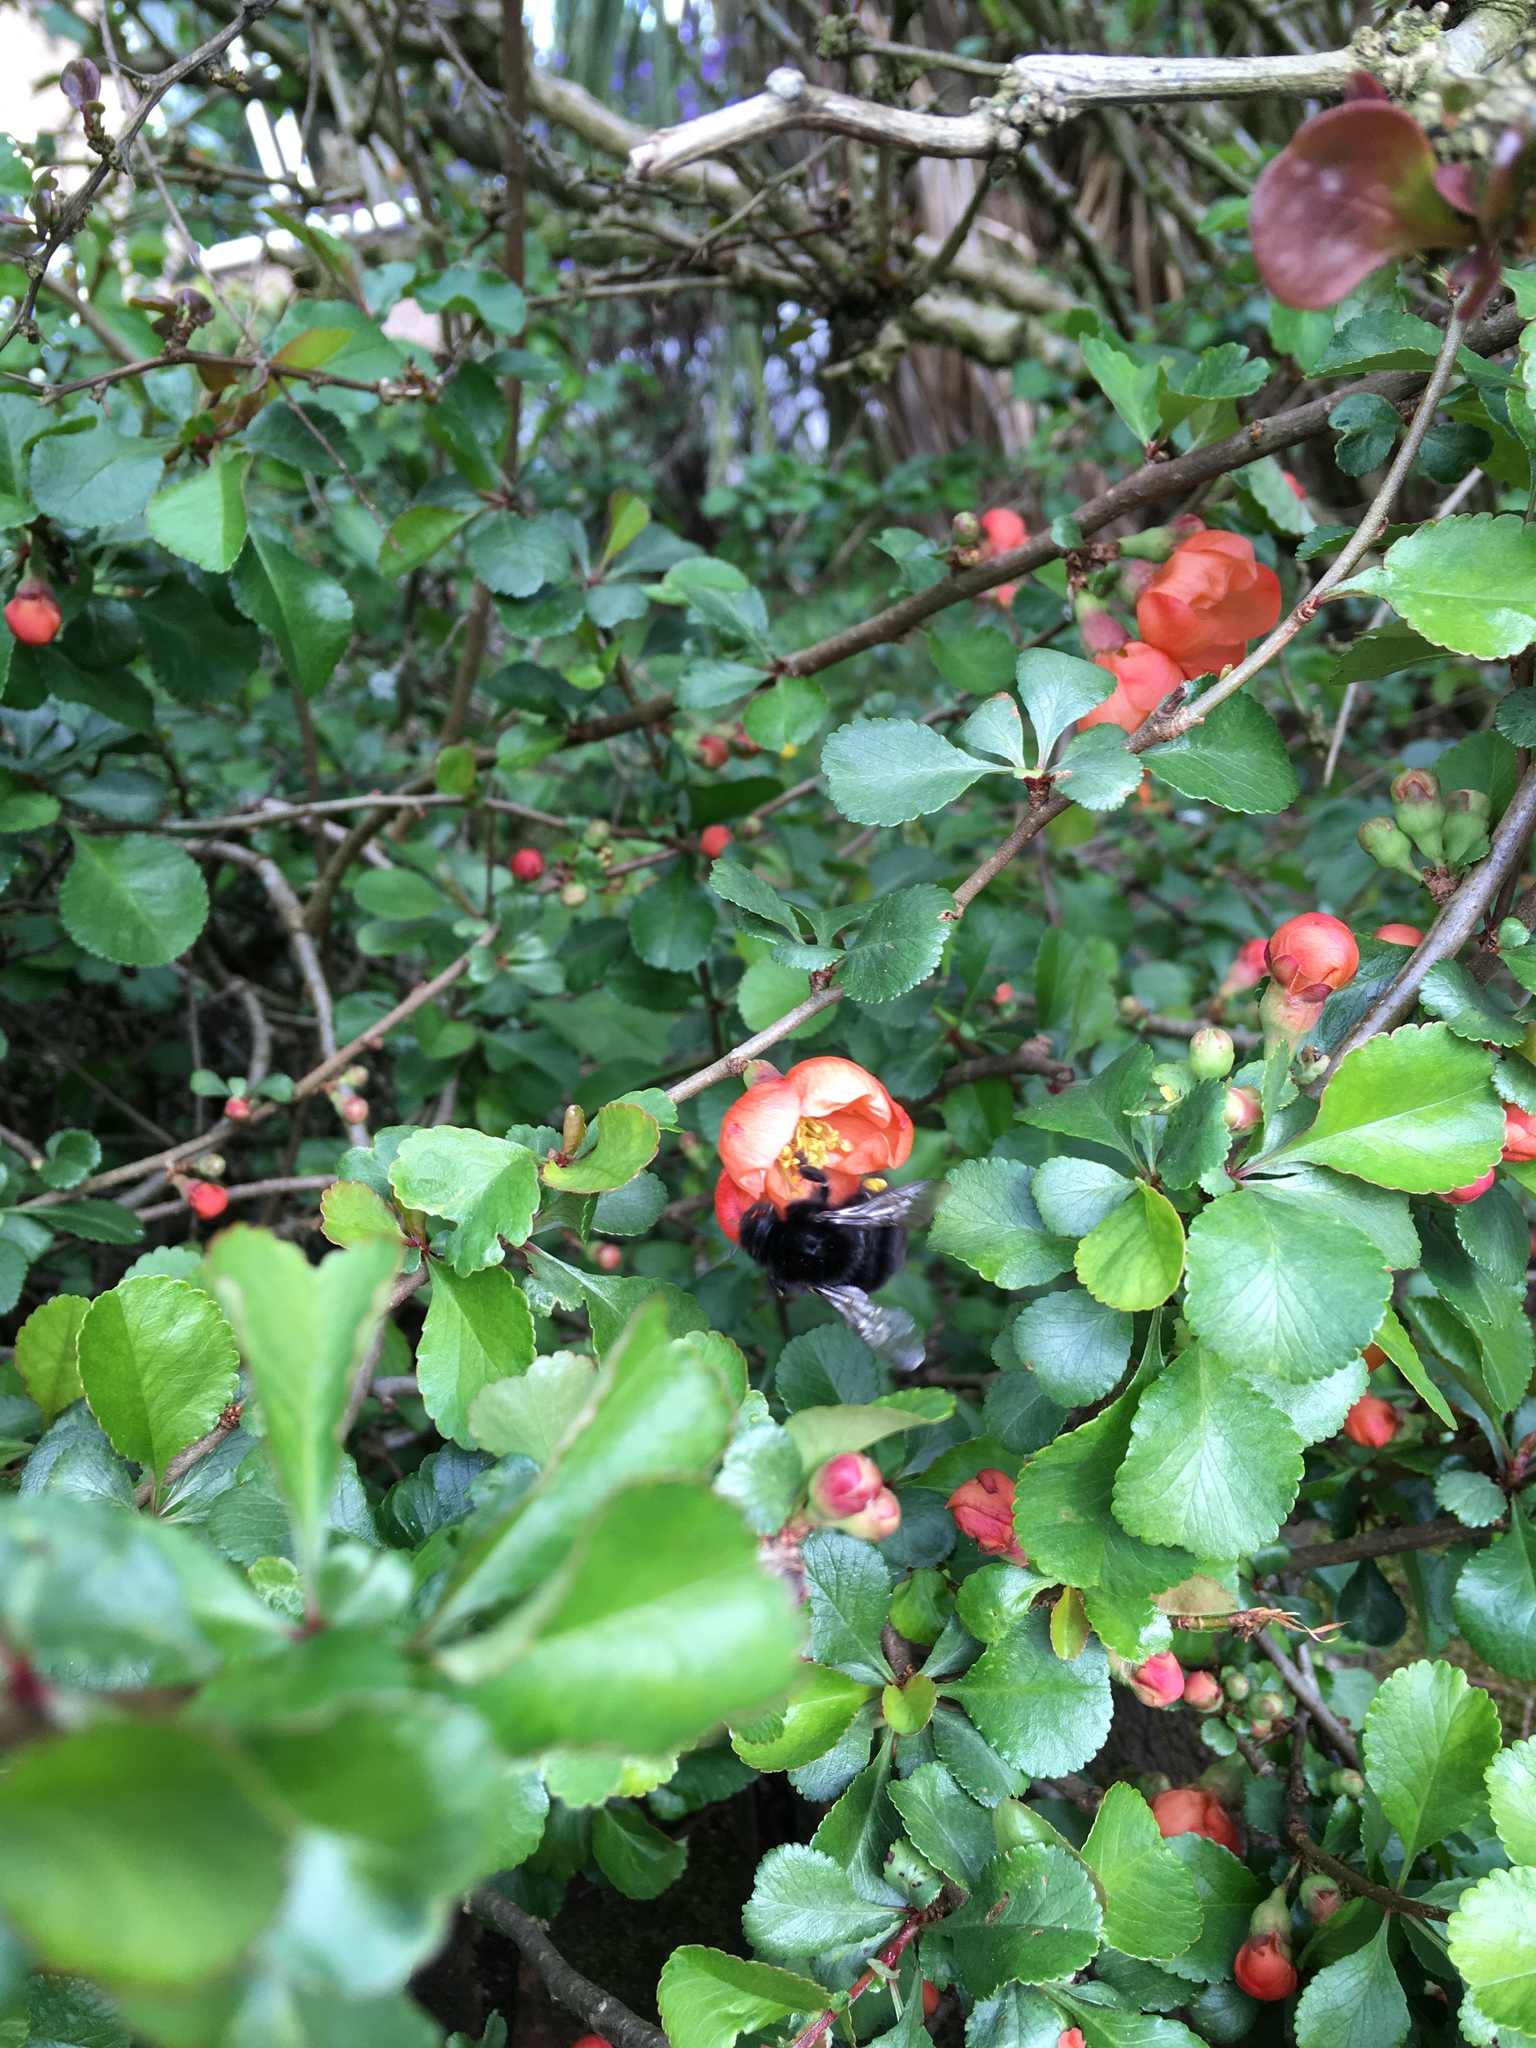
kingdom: Animalia
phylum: Arthropoda
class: Insecta
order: Hymenoptera
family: Apidae
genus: Bombus
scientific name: Bombus lapidarius
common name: Large red-tailed humble-bee
